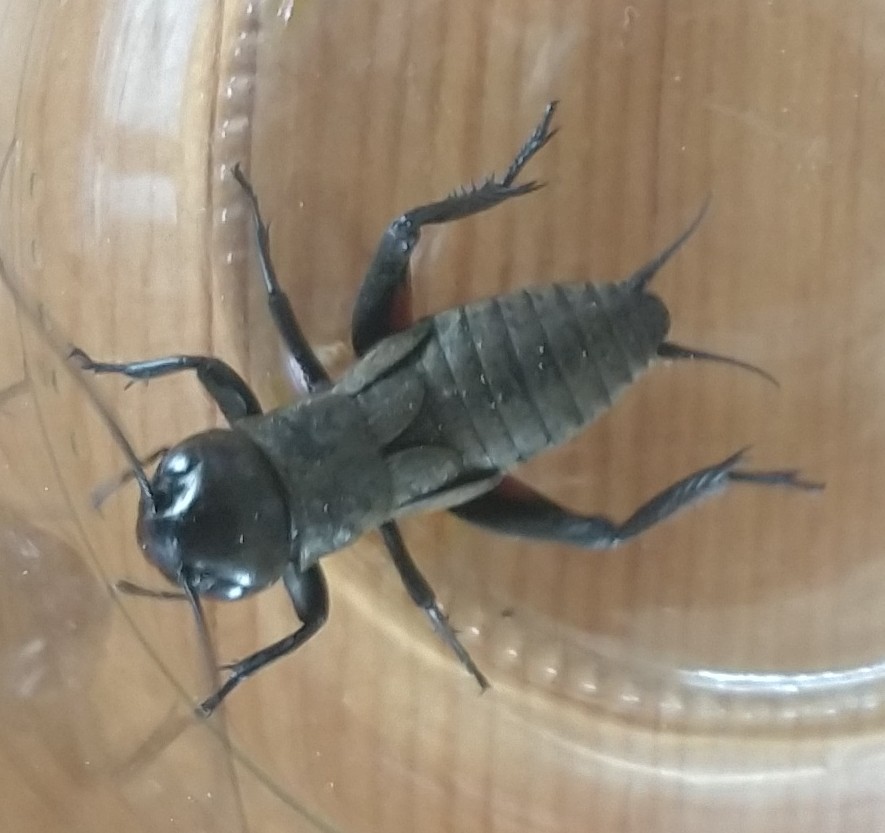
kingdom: Animalia
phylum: Arthropoda
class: Insecta
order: Orthoptera
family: Gryllidae
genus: Gryllus
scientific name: Gryllus campestris
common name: Field cricket
